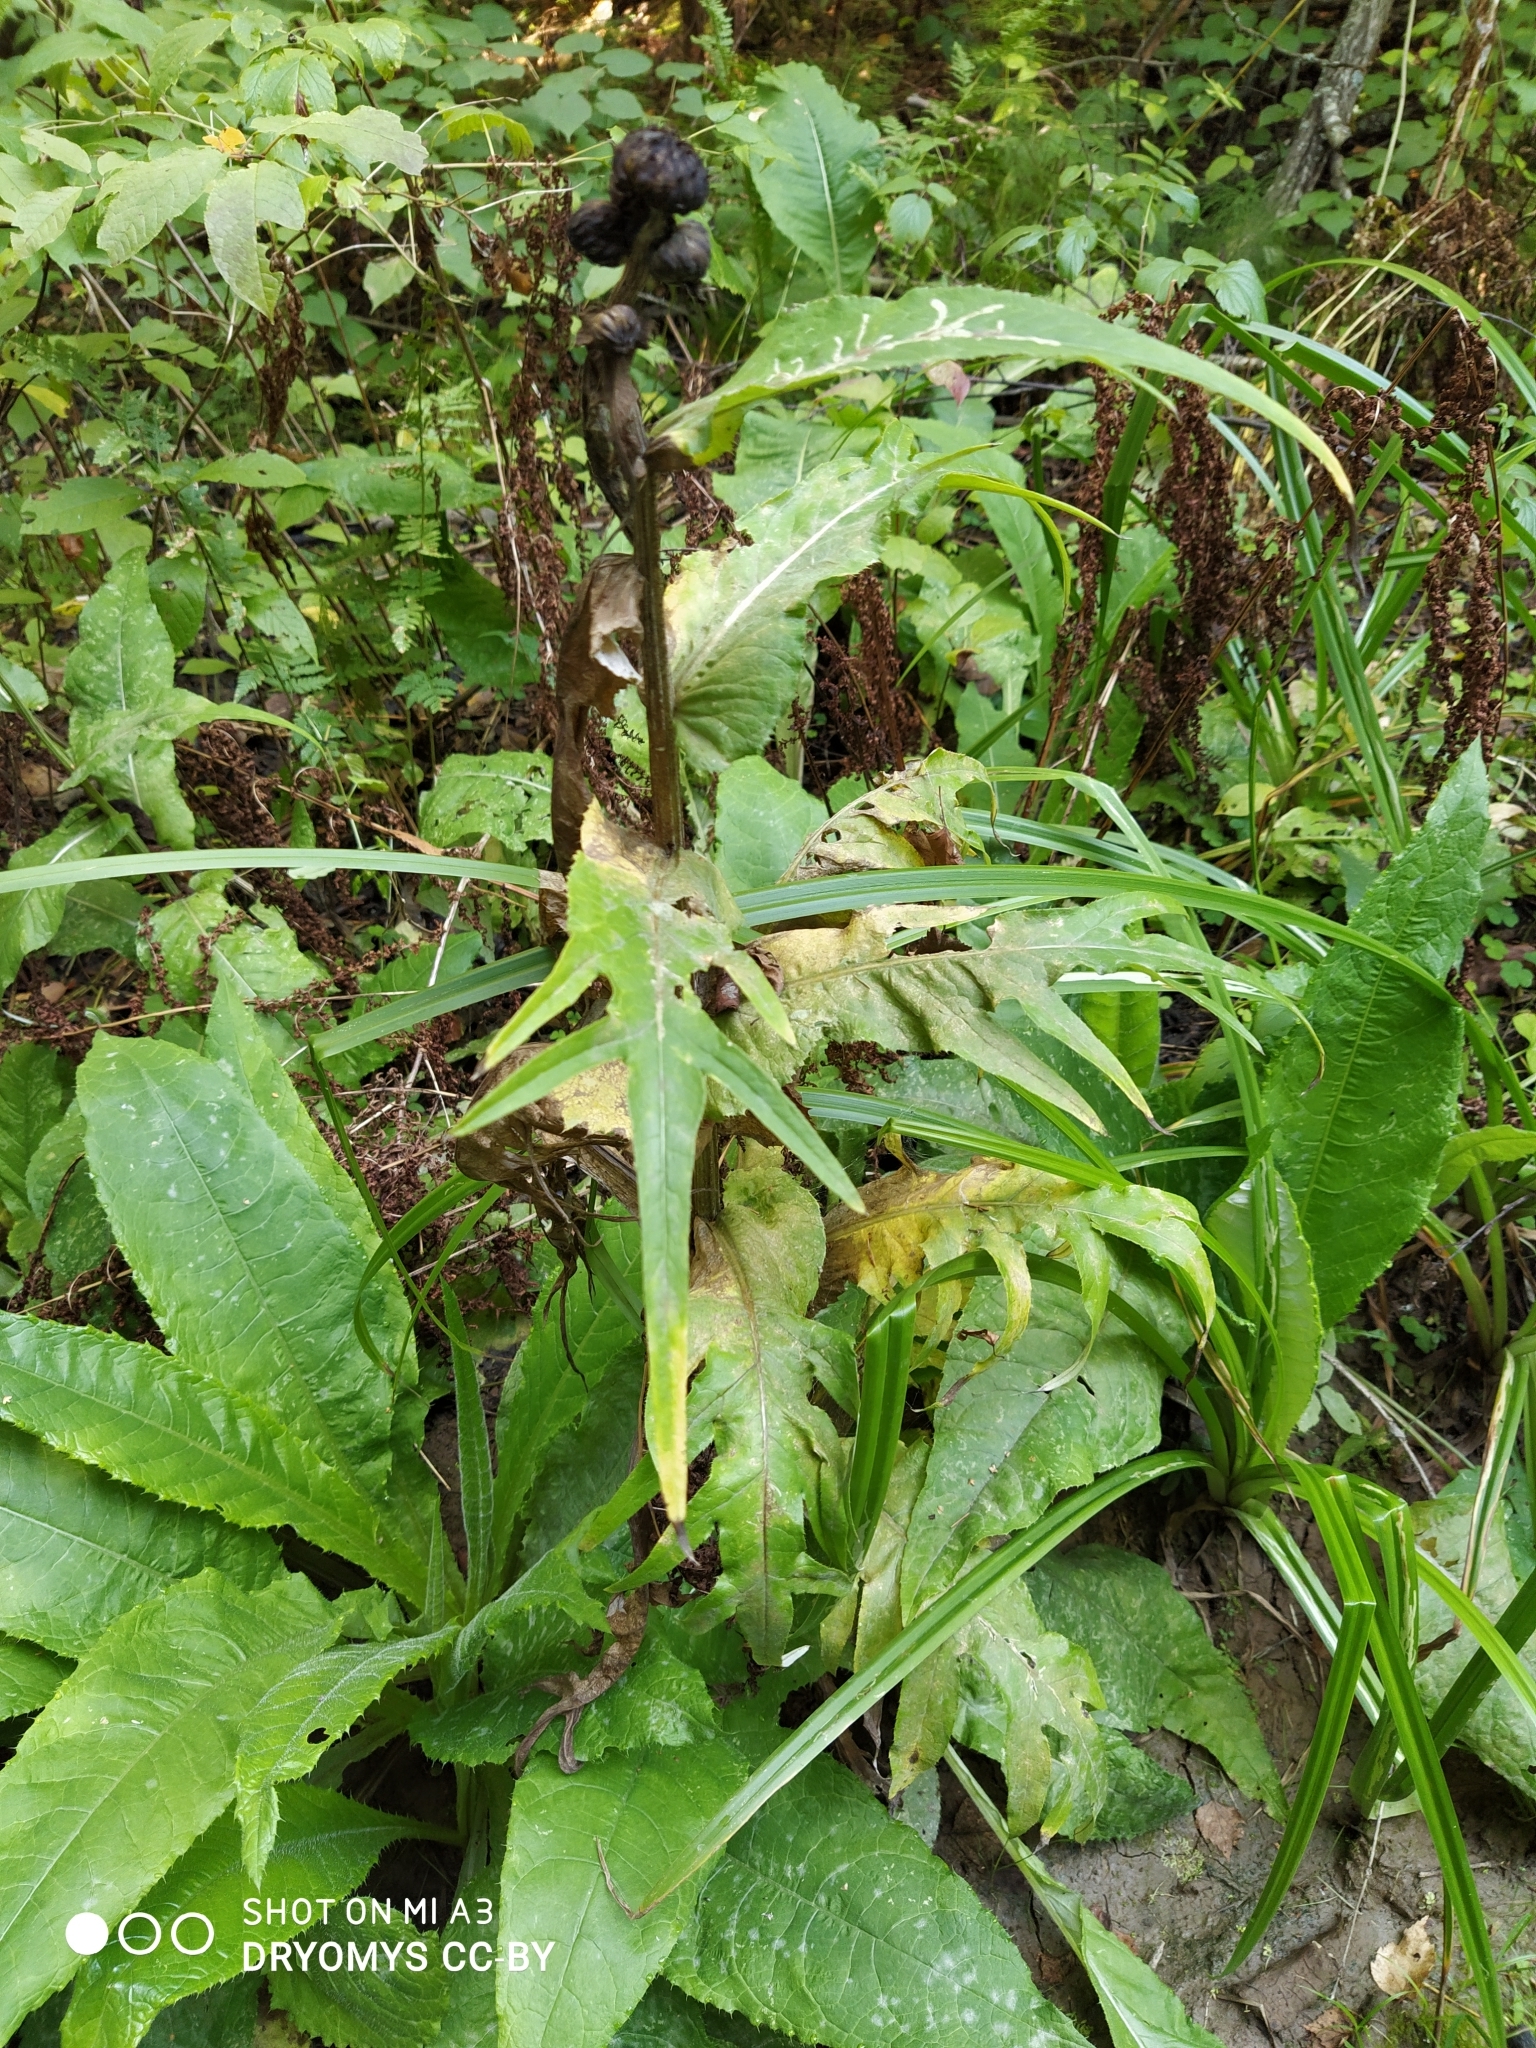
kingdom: Plantae
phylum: Tracheophyta
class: Magnoliopsida
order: Asterales
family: Asteraceae
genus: Cirsium
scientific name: Cirsium heterophyllum
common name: Melancholy thistle
